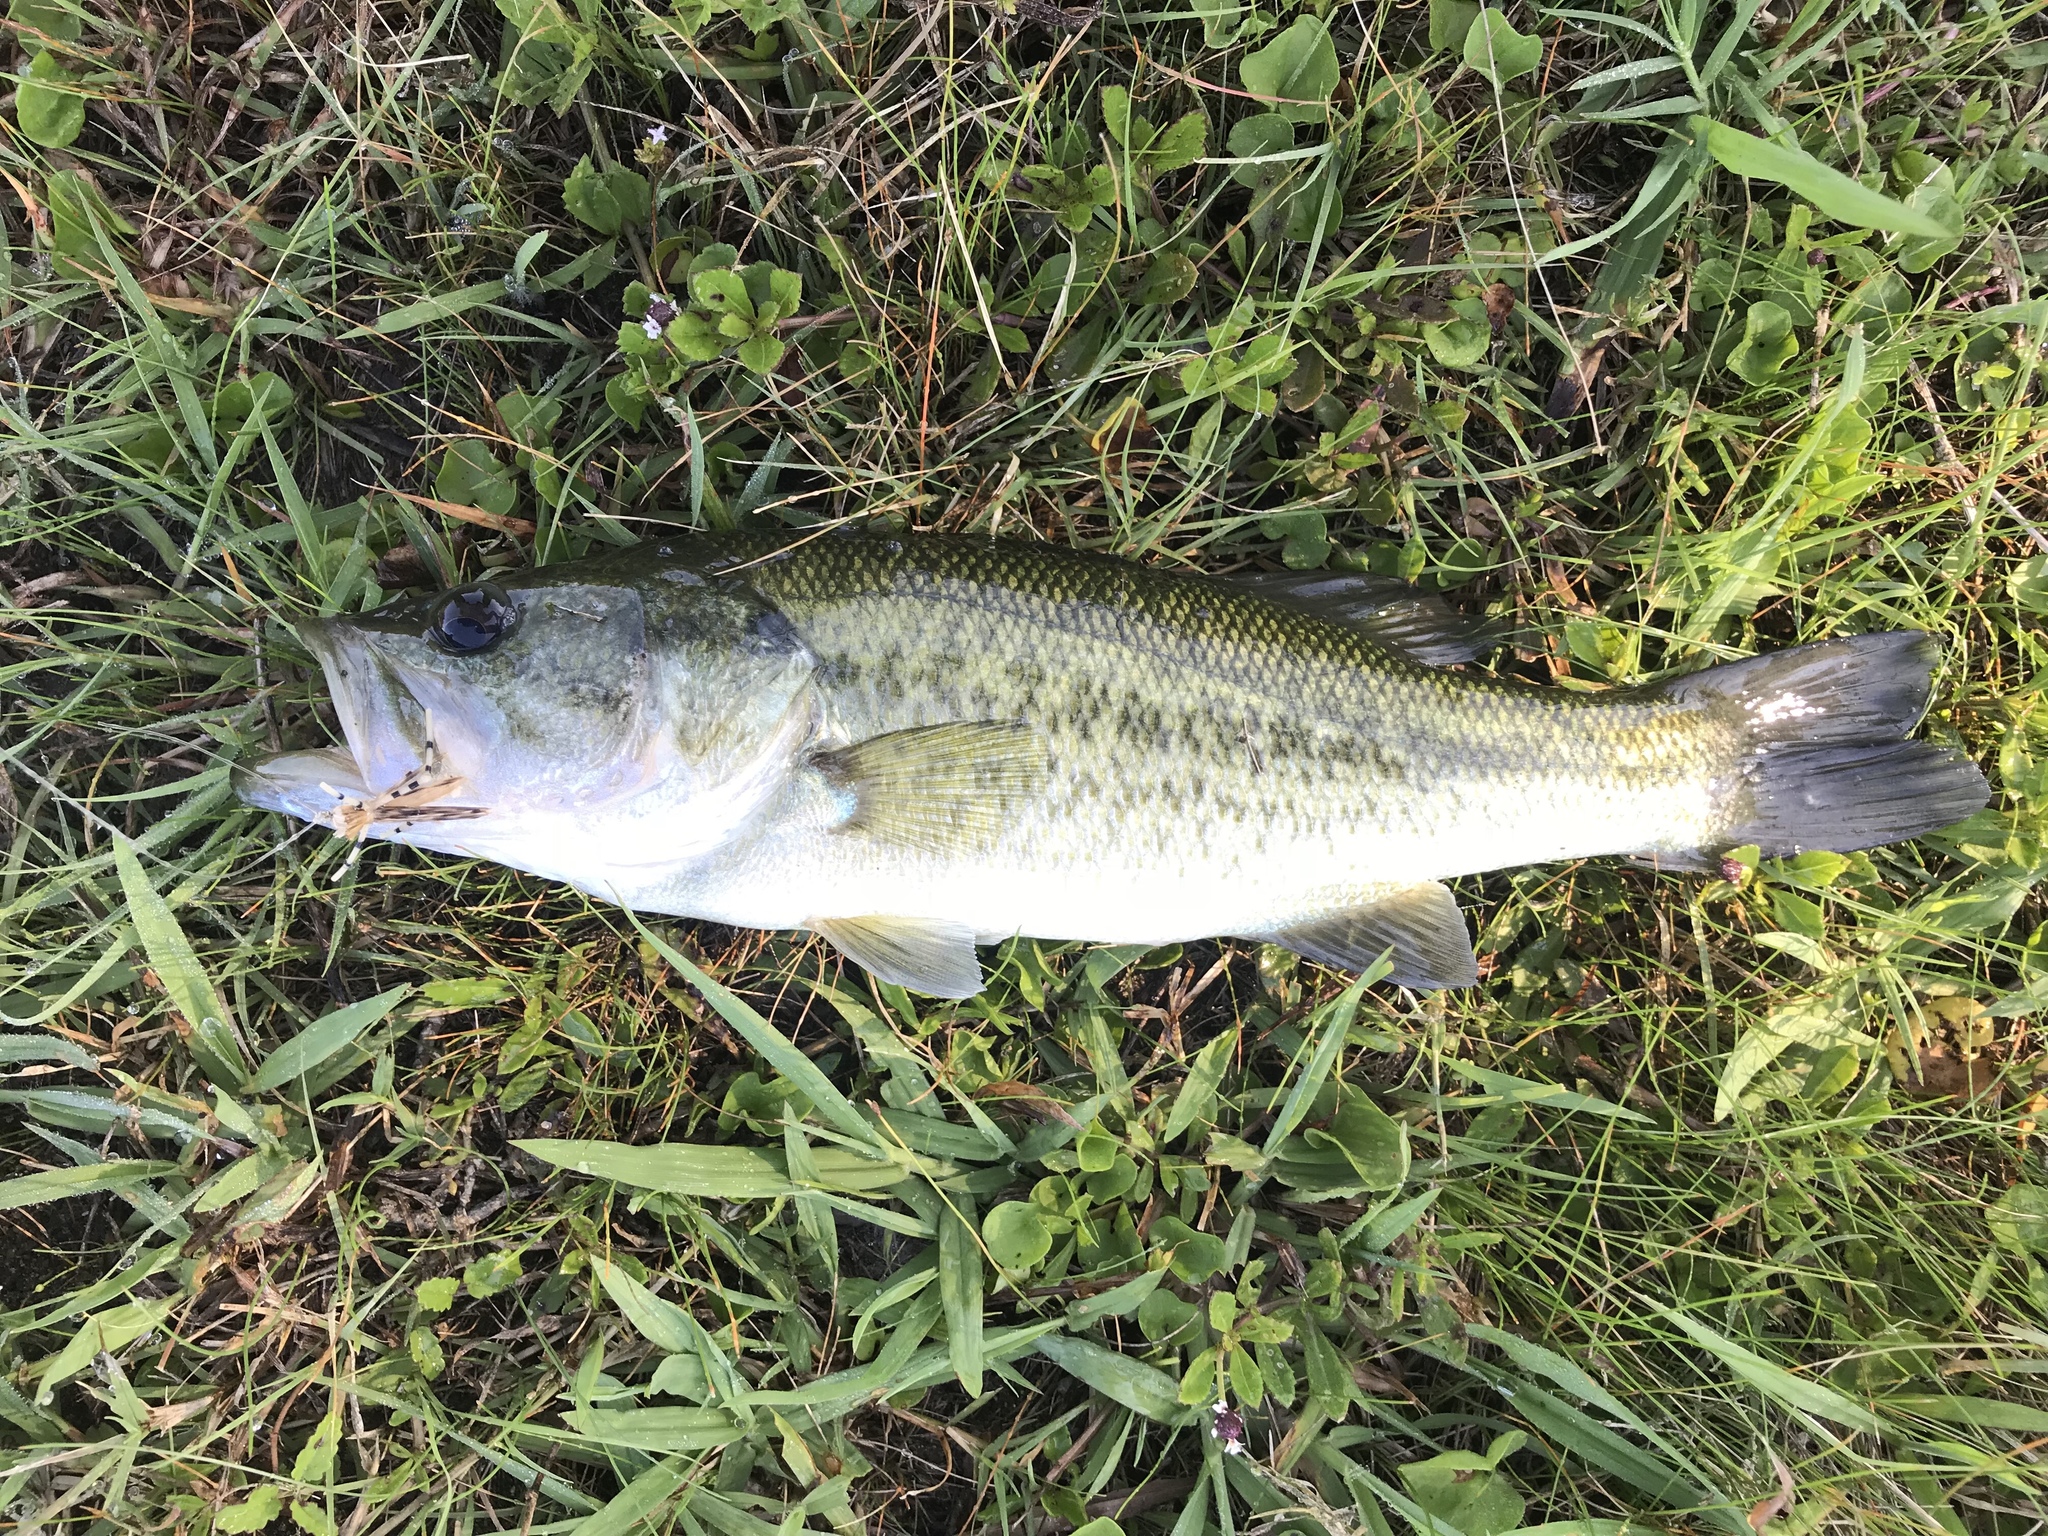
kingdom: Animalia
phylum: Chordata
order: Perciformes
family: Centrarchidae
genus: Micropterus
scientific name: Micropterus
